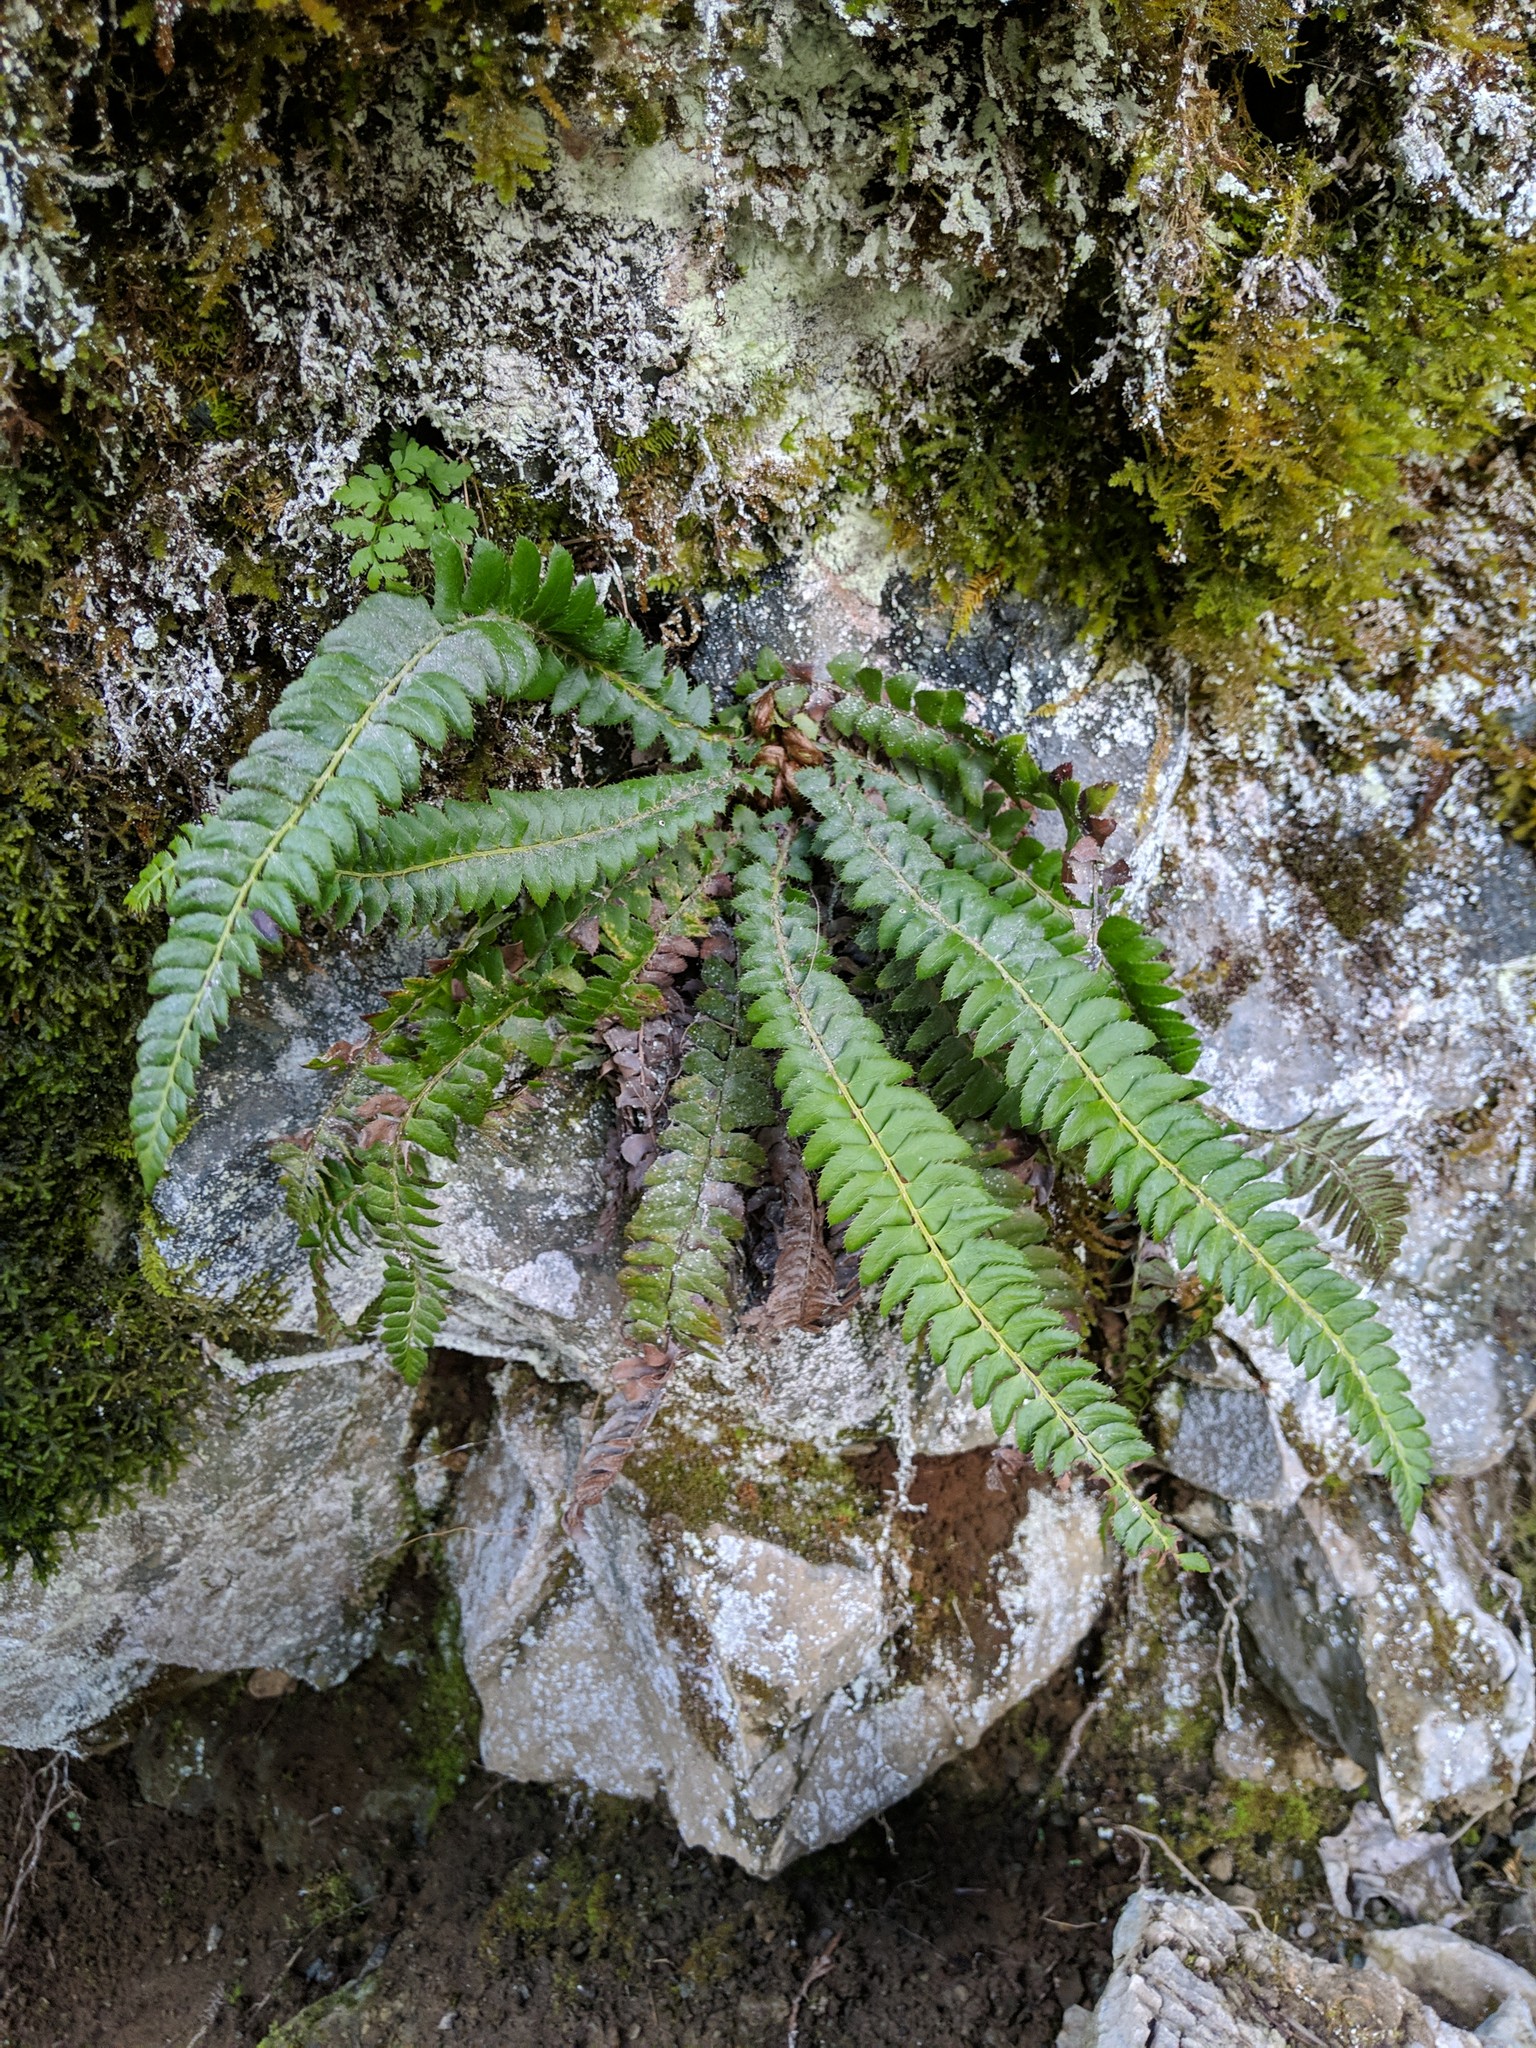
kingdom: Plantae
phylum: Tracheophyta
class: Polypodiopsida
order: Polypodiales
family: Dryopteridaceae
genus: Polystichum
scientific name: Polystichum lonchitis
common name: Holly fern
